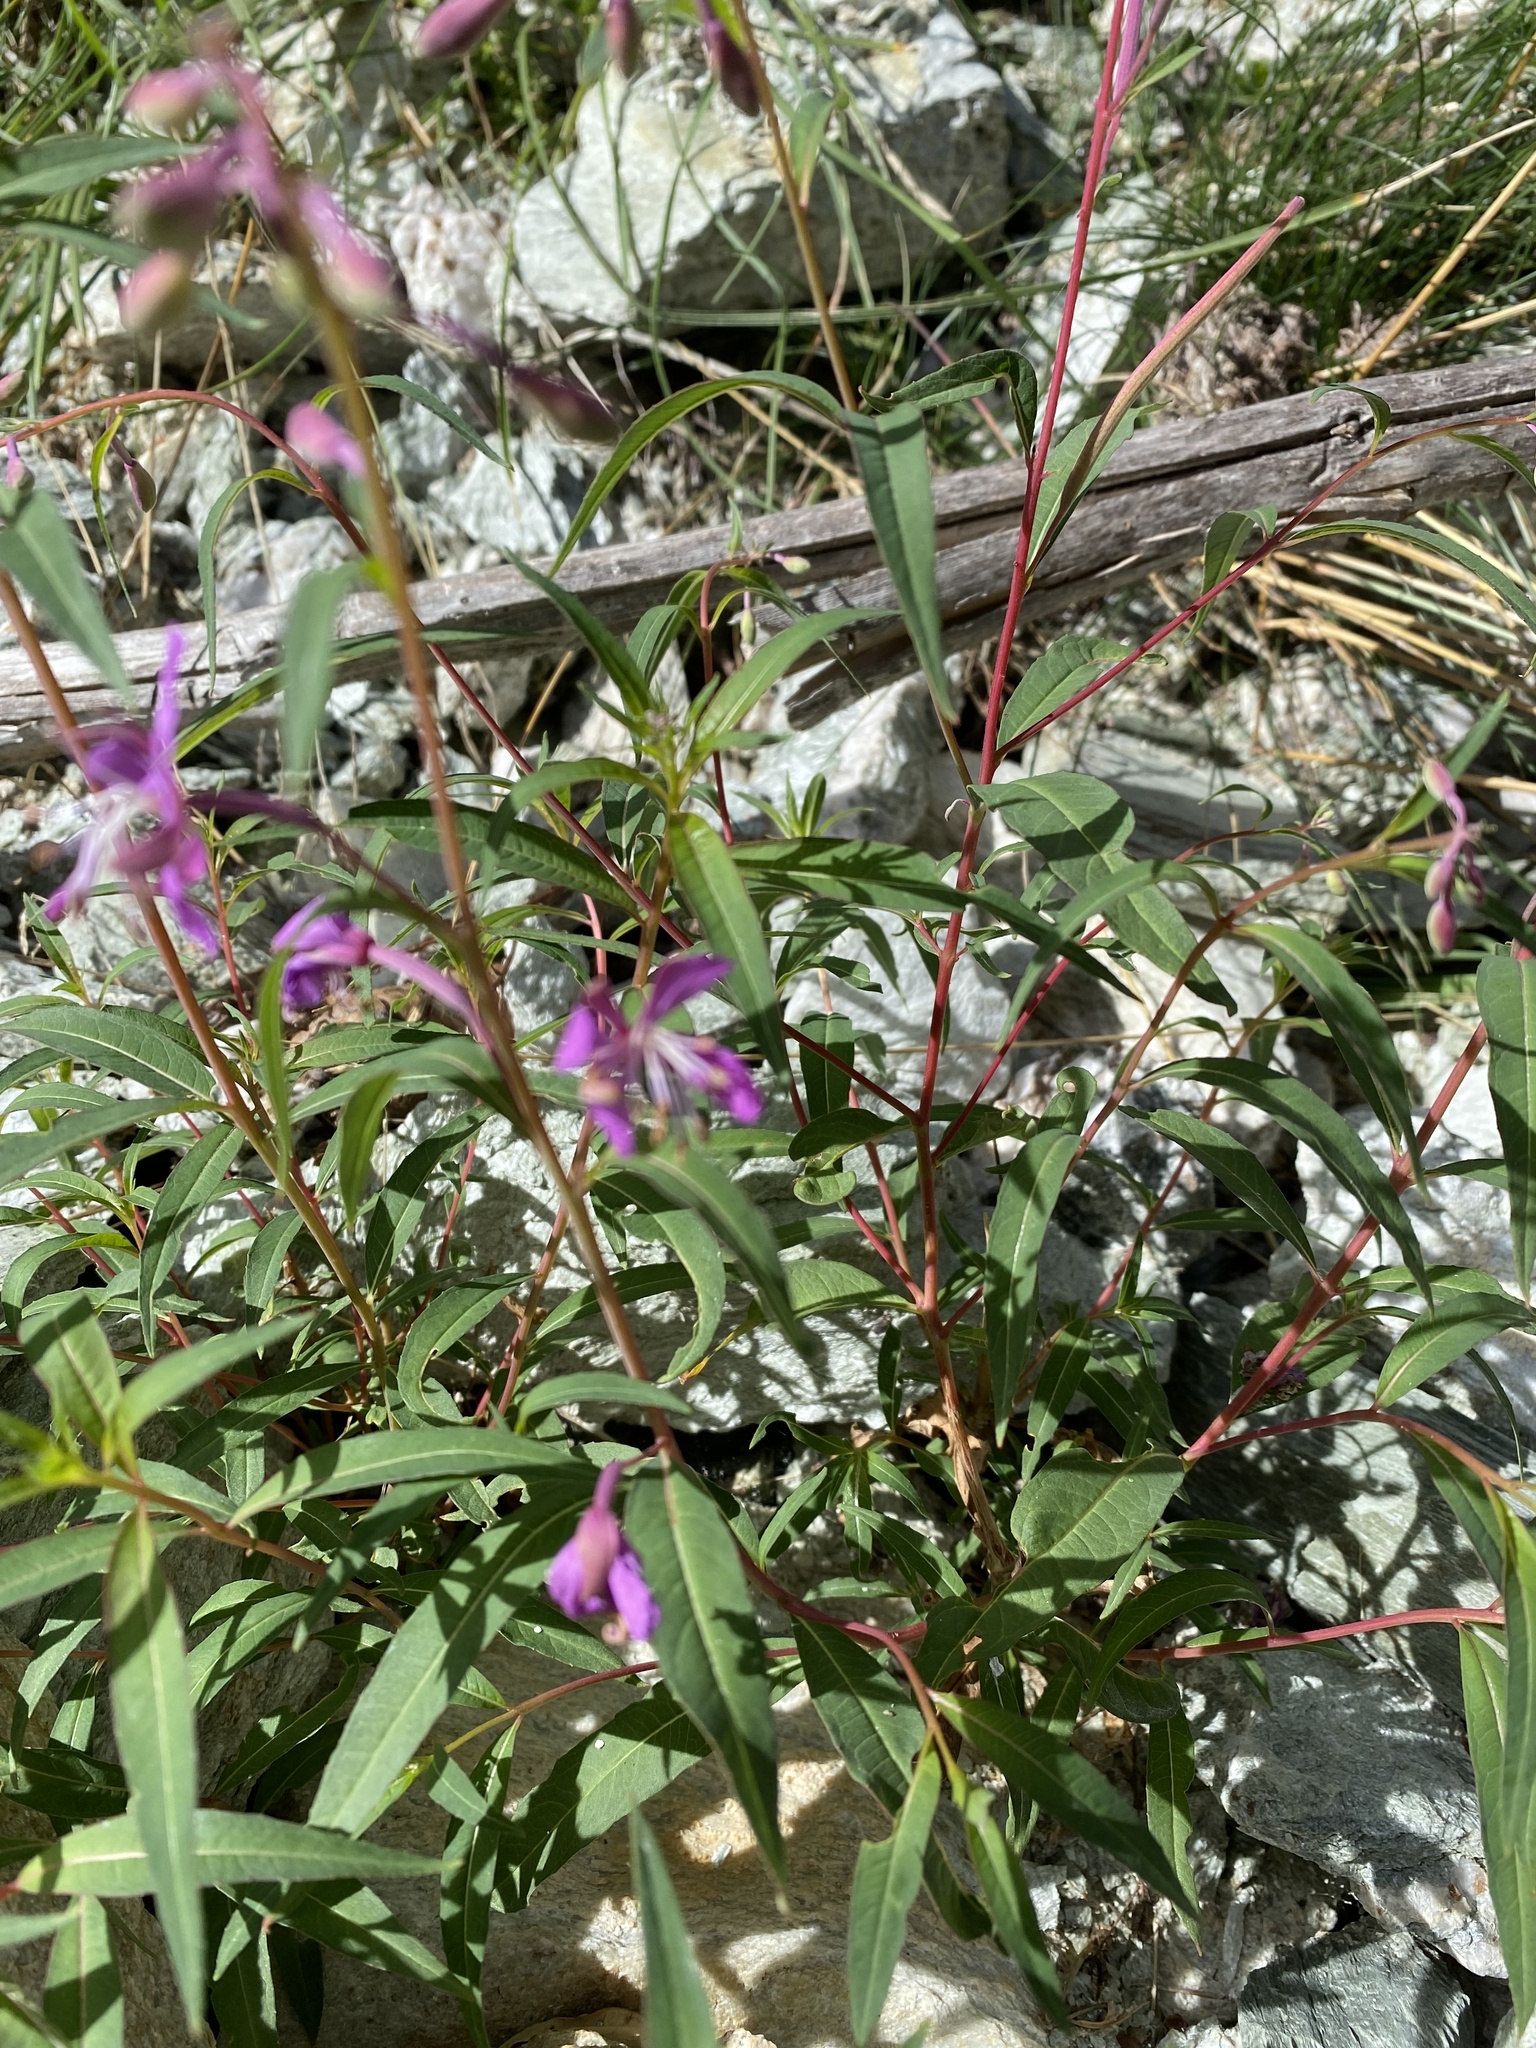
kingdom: Plantae
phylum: Tracheophyta
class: Magnoliopsida
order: Myrtales
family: Onagraceae
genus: Chamaenerion
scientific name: Chamaenerion angustifolium
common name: Fireweed
